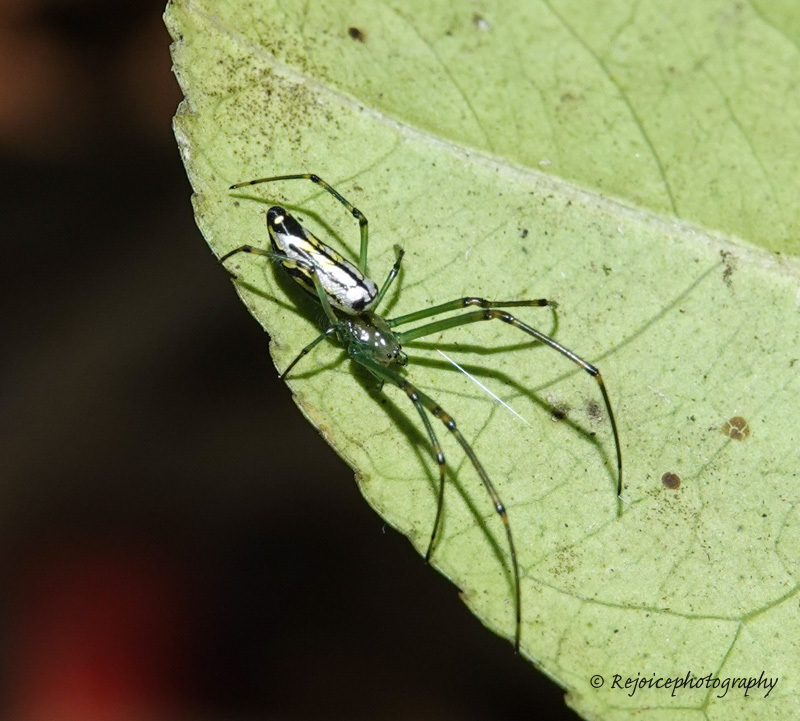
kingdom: Animalia
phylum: Arthropoda
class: Arachnida
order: Araneae
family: Tetragnathidae
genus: Leucauge
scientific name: Leucauge decorata
